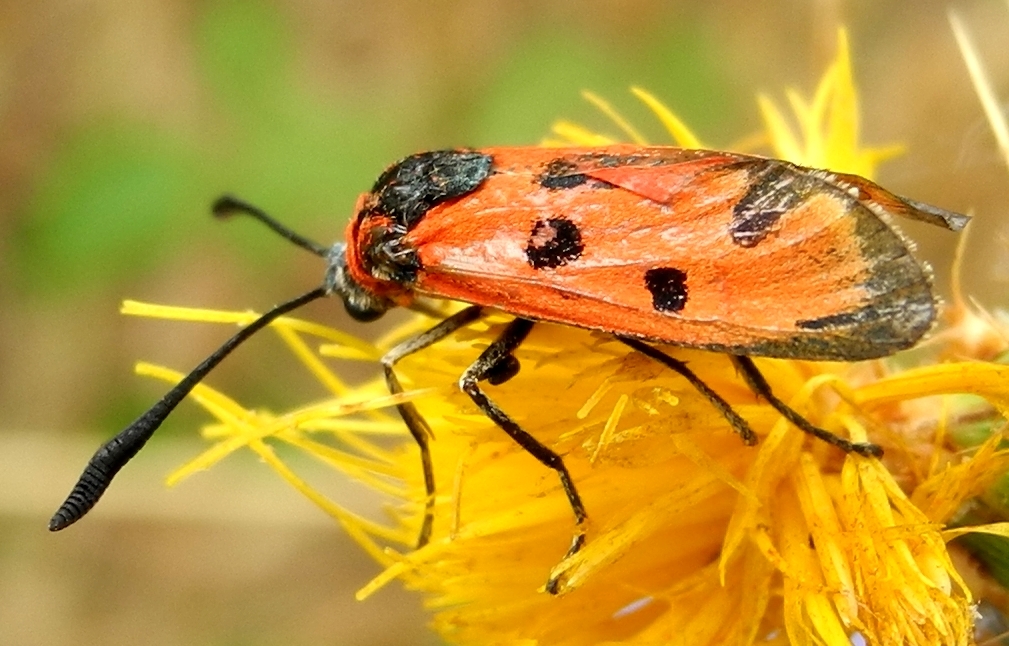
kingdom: Animalia
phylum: Arthropoda
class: Insecta
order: Lepidoptera
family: Zygaenidae
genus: Zygaena
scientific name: Zygaena laeta
